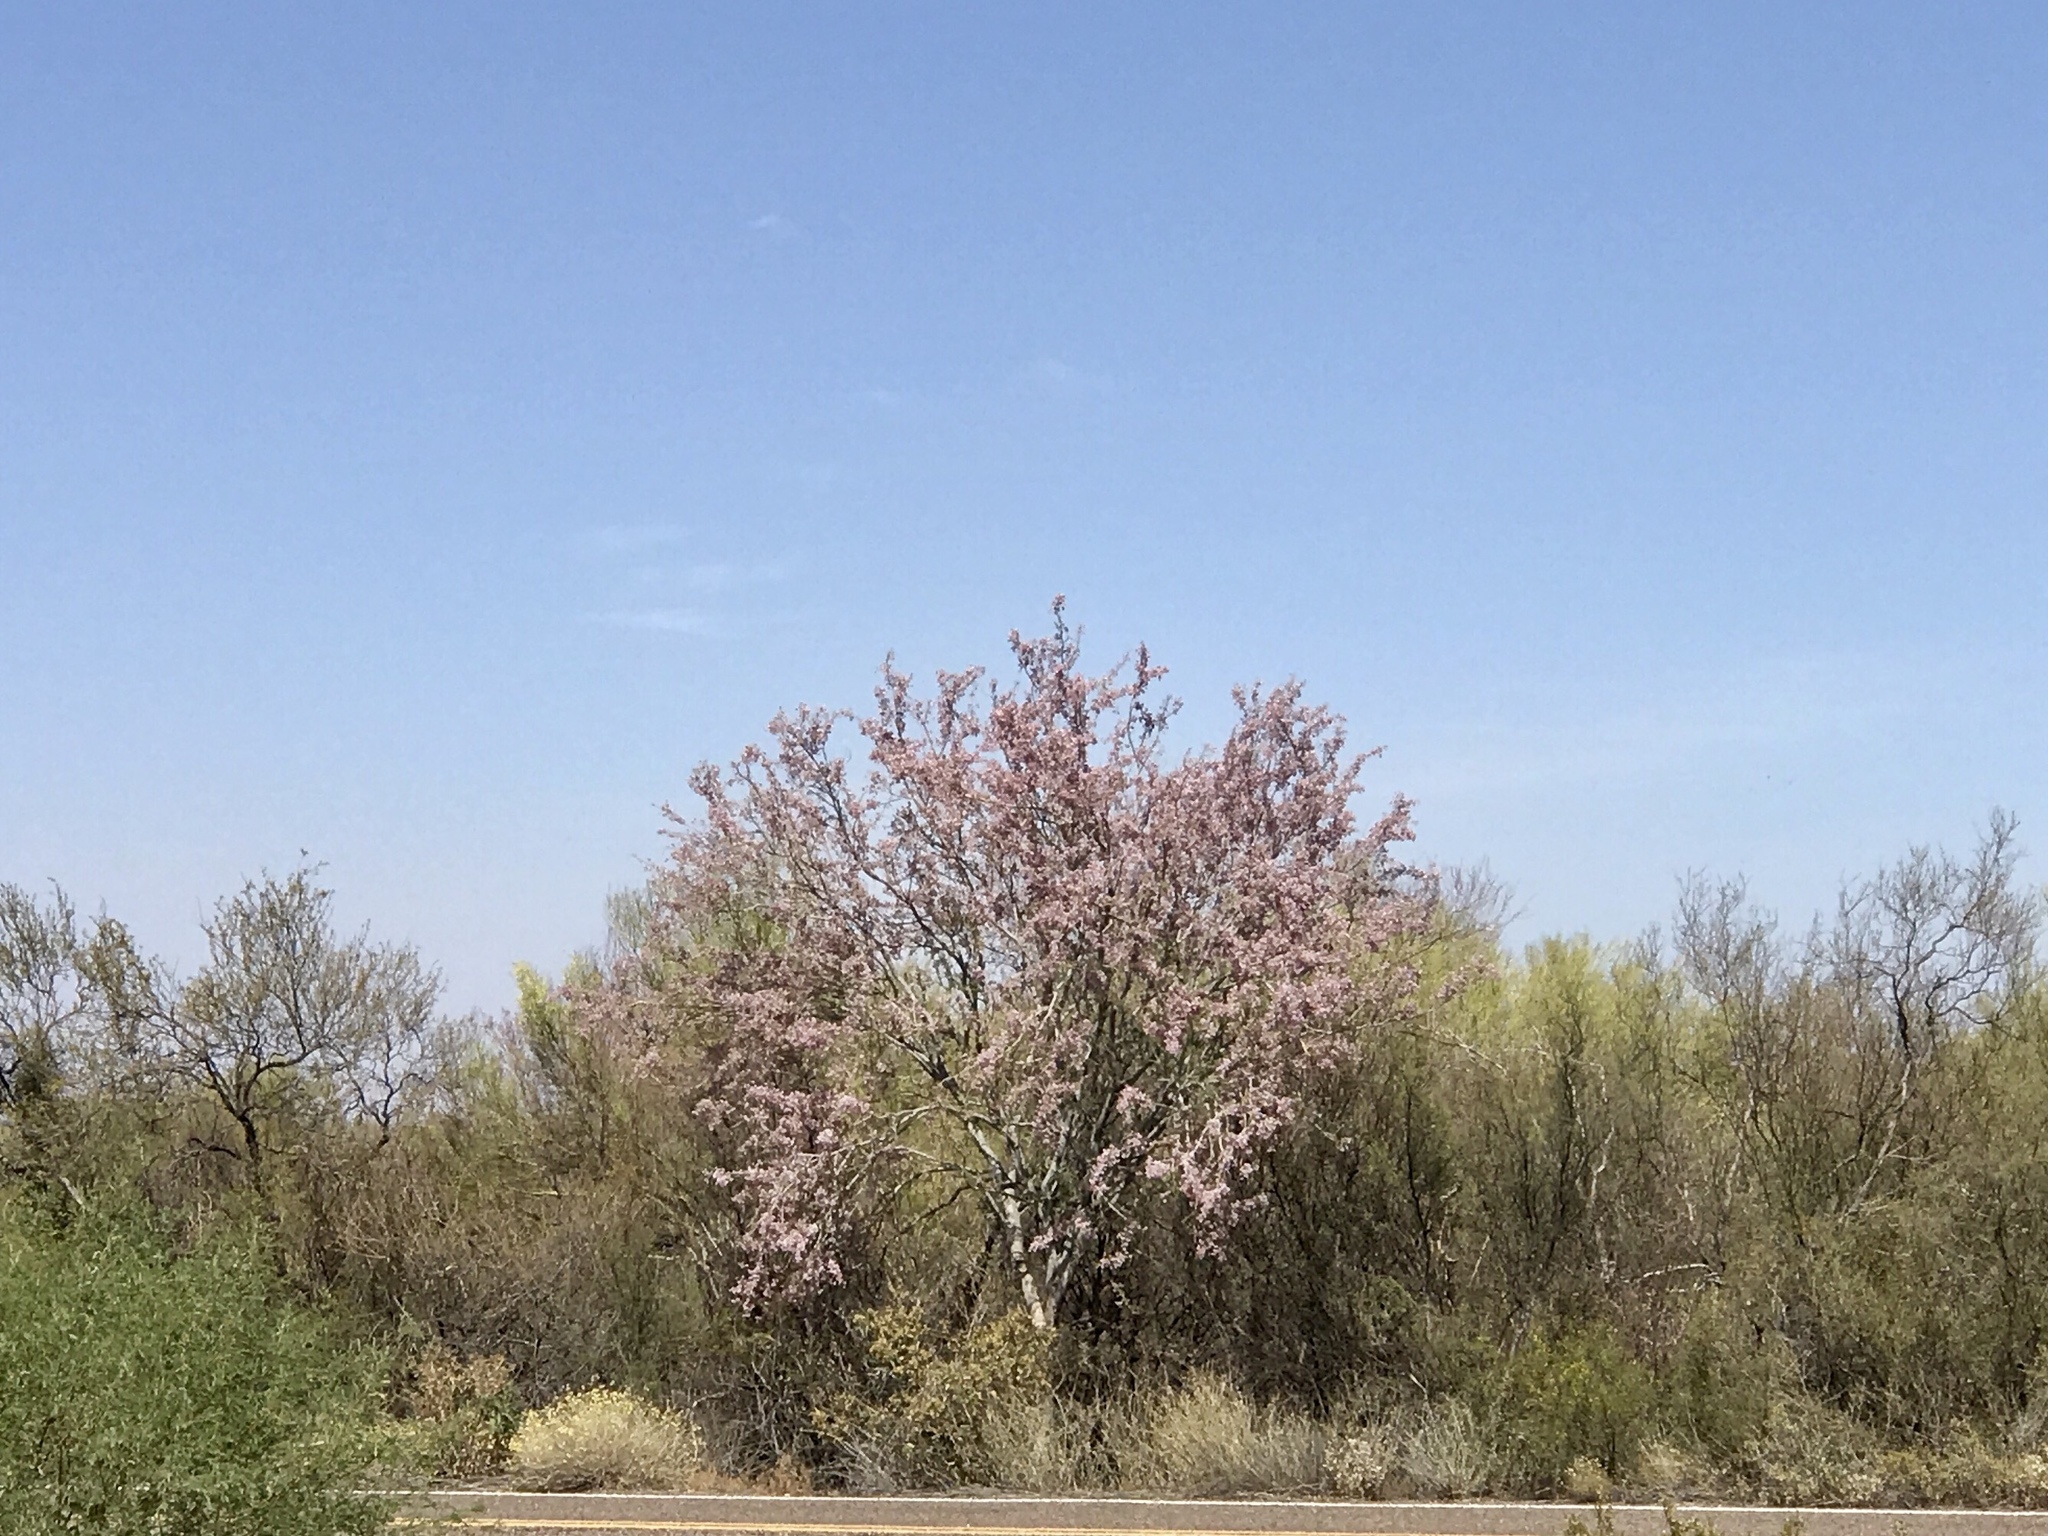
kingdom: Plantae
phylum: Tracheophyta
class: Magnoliopsida
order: Fabales
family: Fabaceae
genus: Olneya
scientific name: Olneya tesota
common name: Desert ironwood
